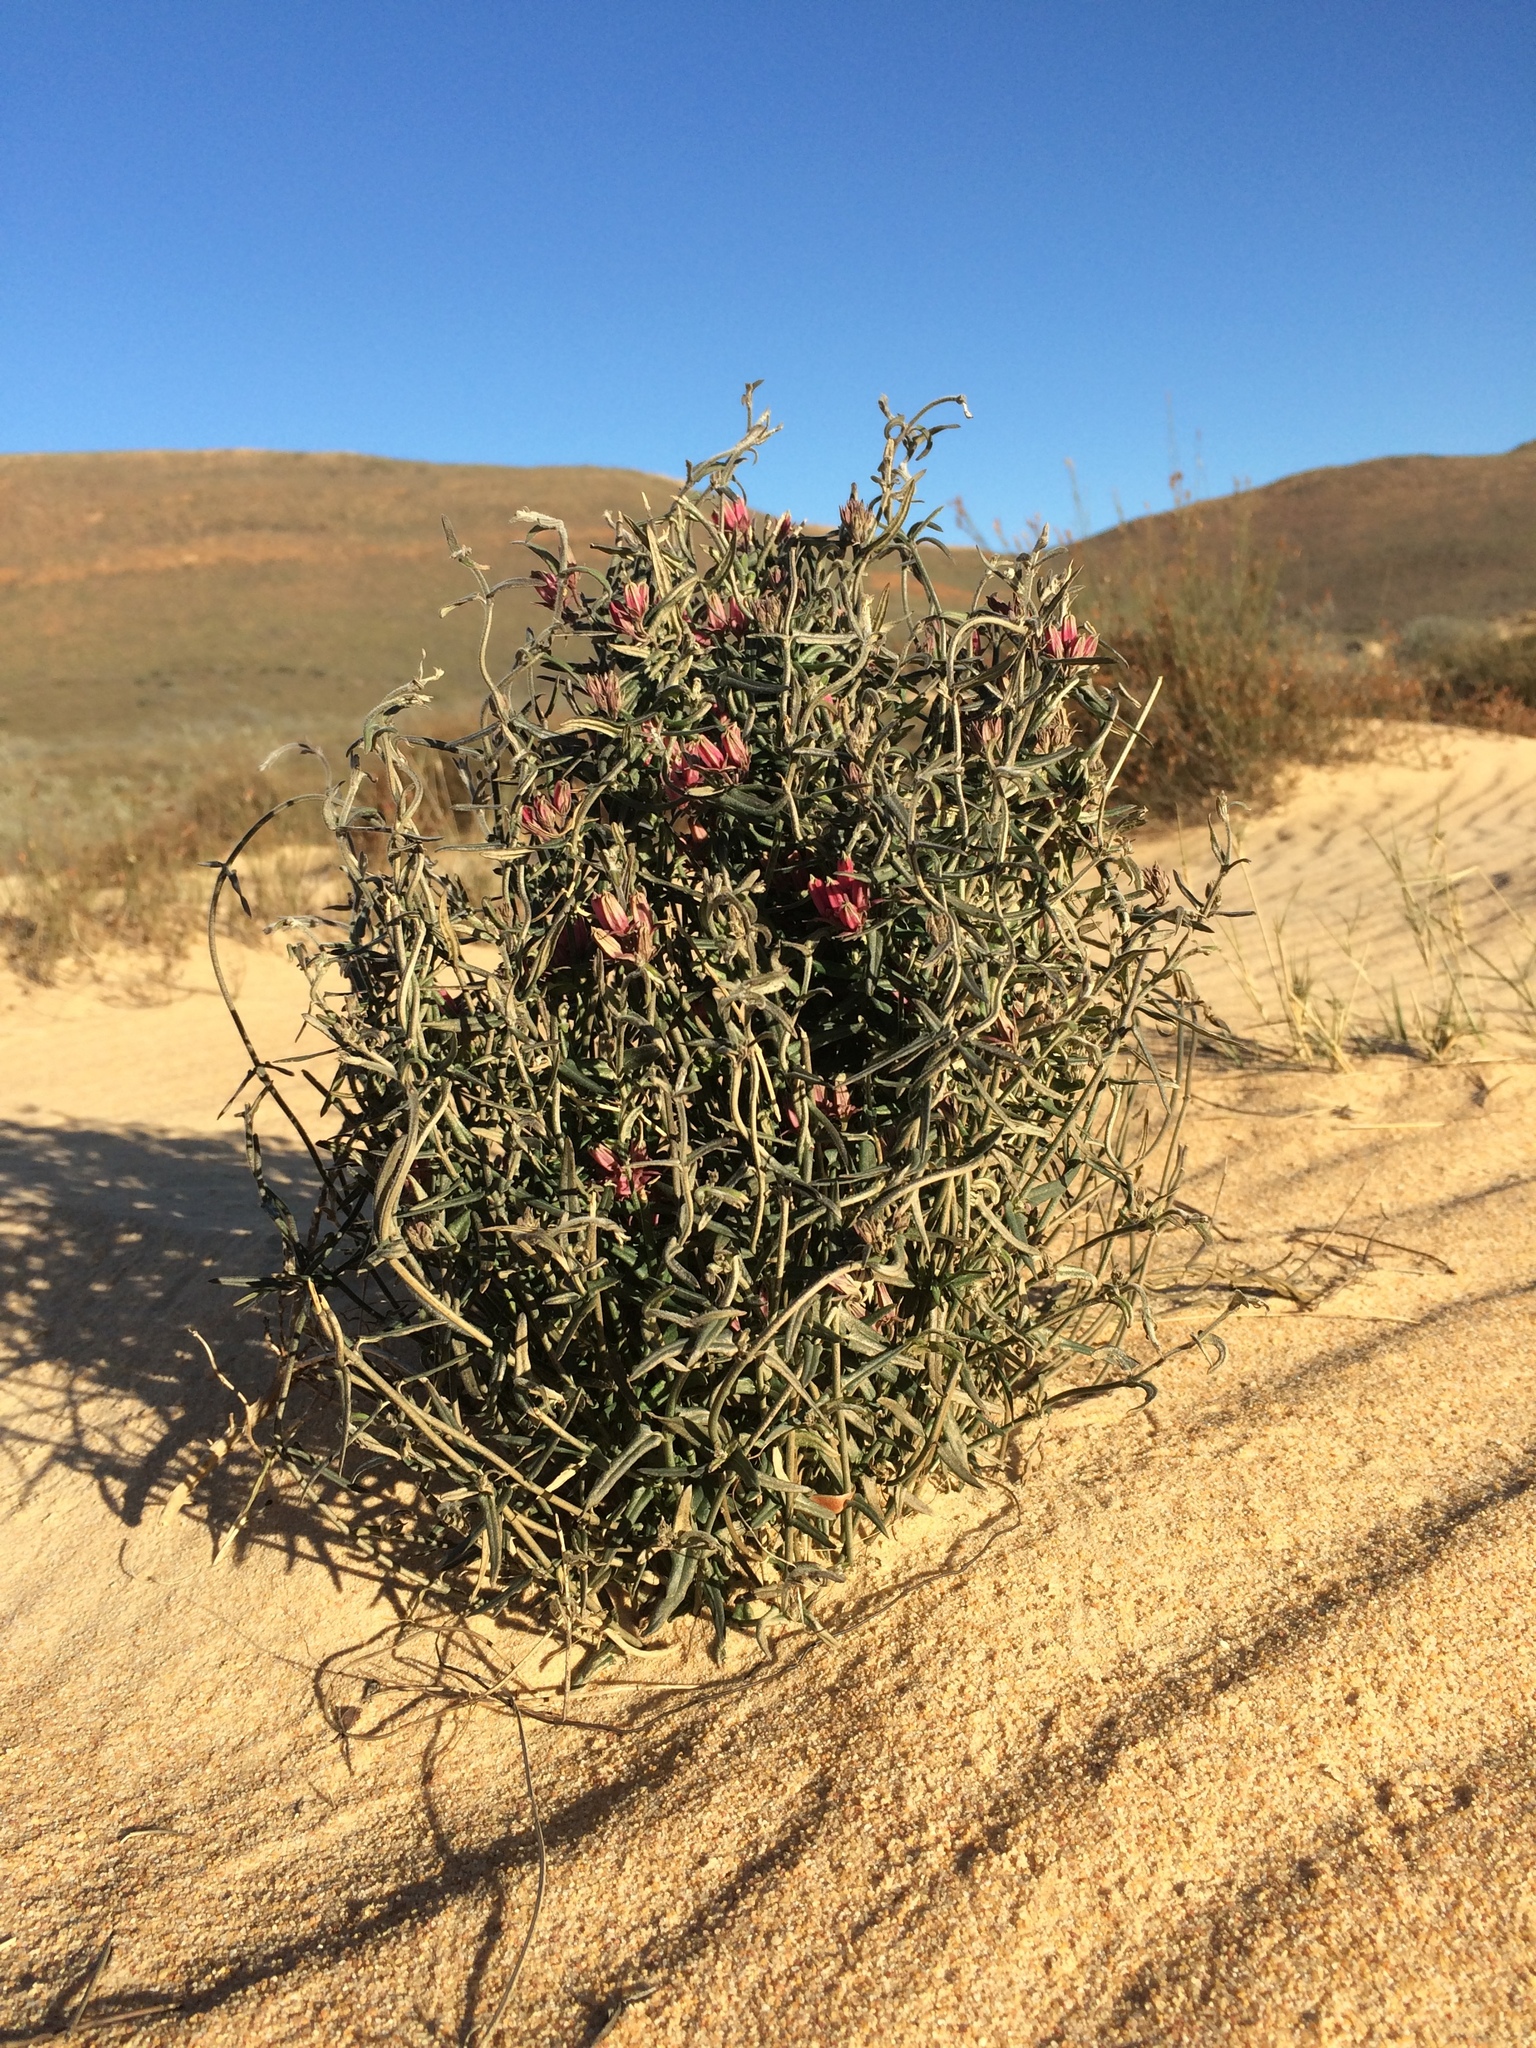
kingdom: Plantae
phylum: Tracheophyta
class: Magnoliopsida
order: Gentianales
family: Apocynaceae
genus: Microloma
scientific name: Microloma sagittatum
